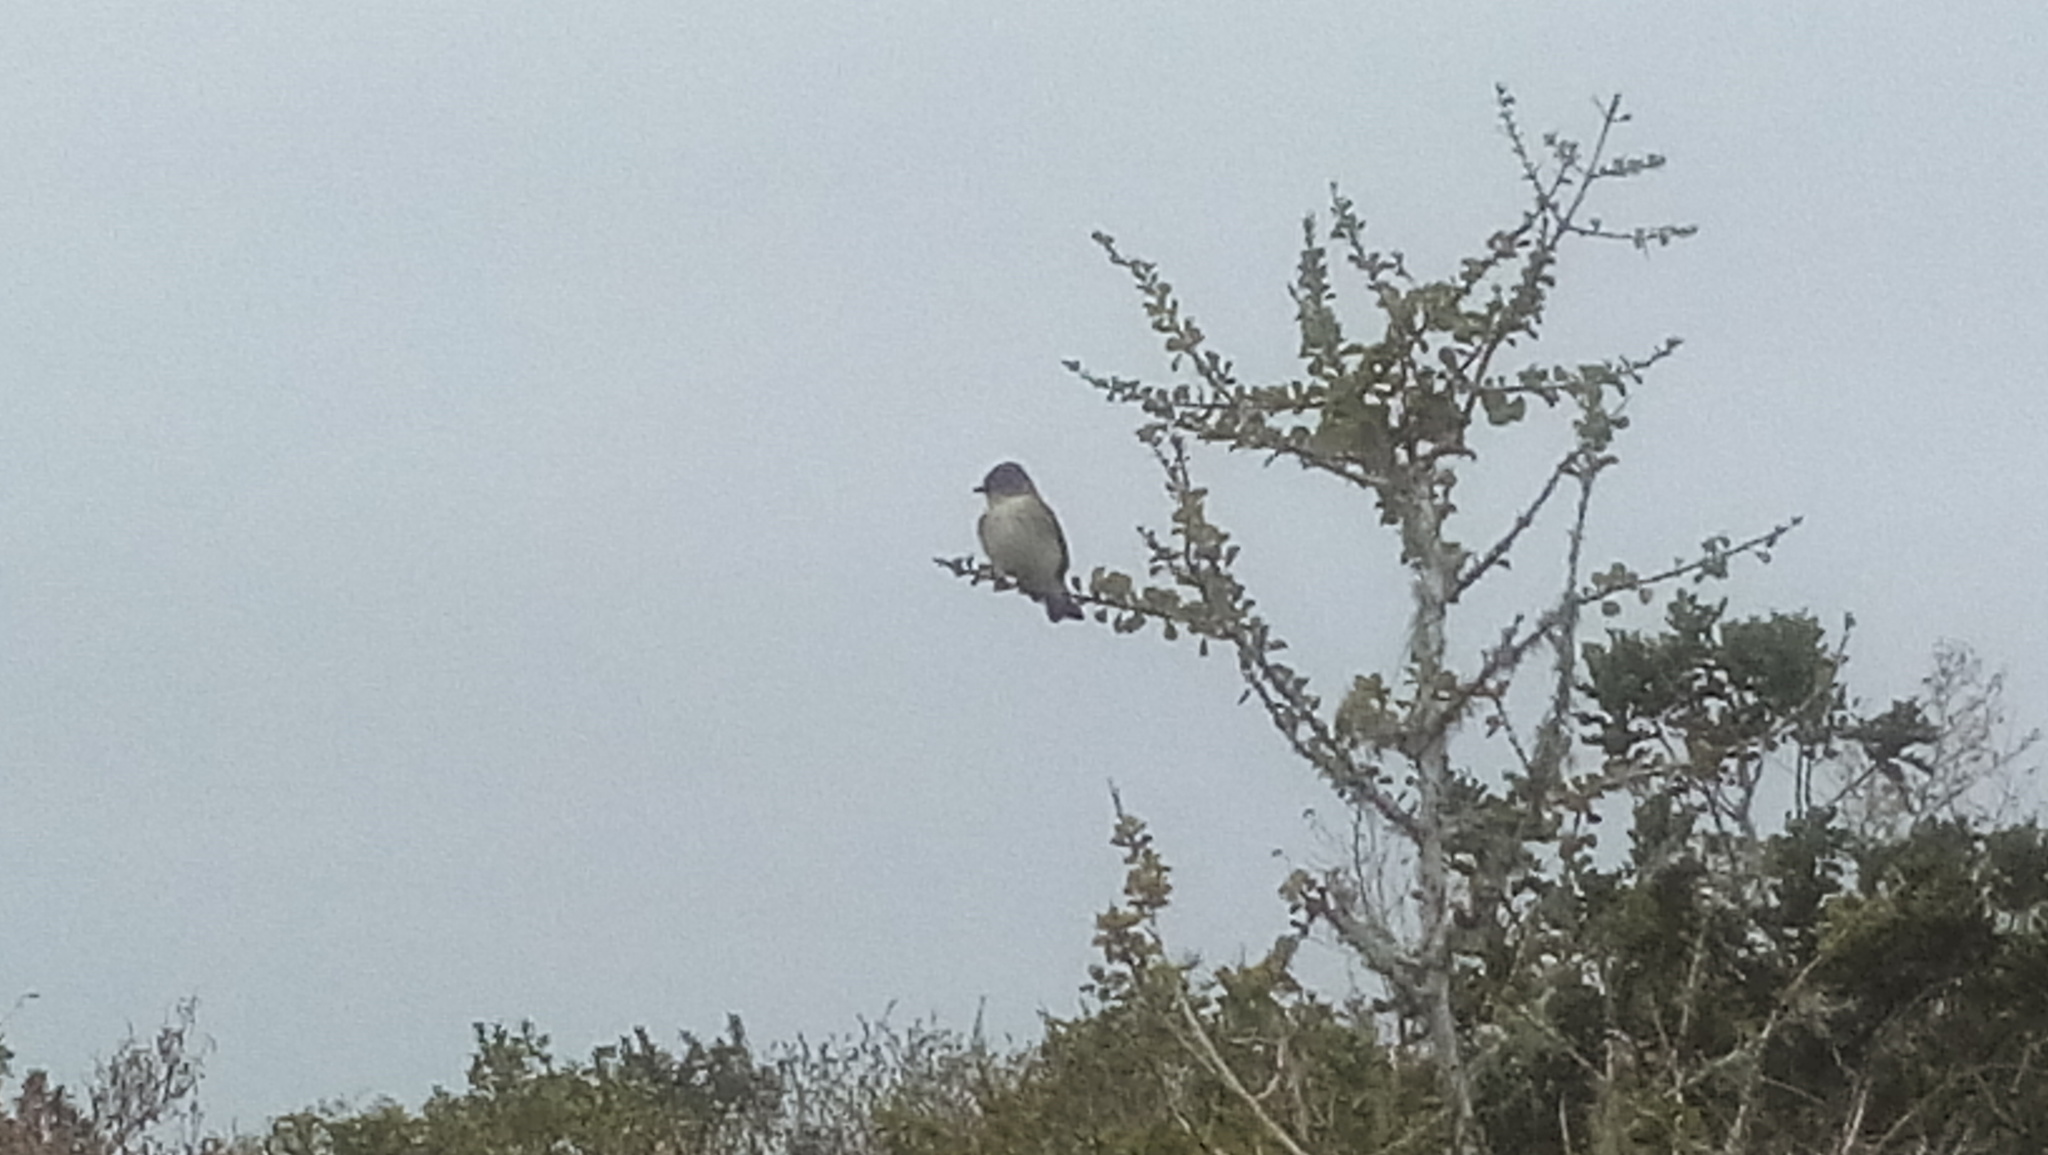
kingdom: Animalia
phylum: Chordata
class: Aves
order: Passeriformes
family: Tyrannidae
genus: Sayornis
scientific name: Sayornis phoebe
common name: Eastern phoebe
